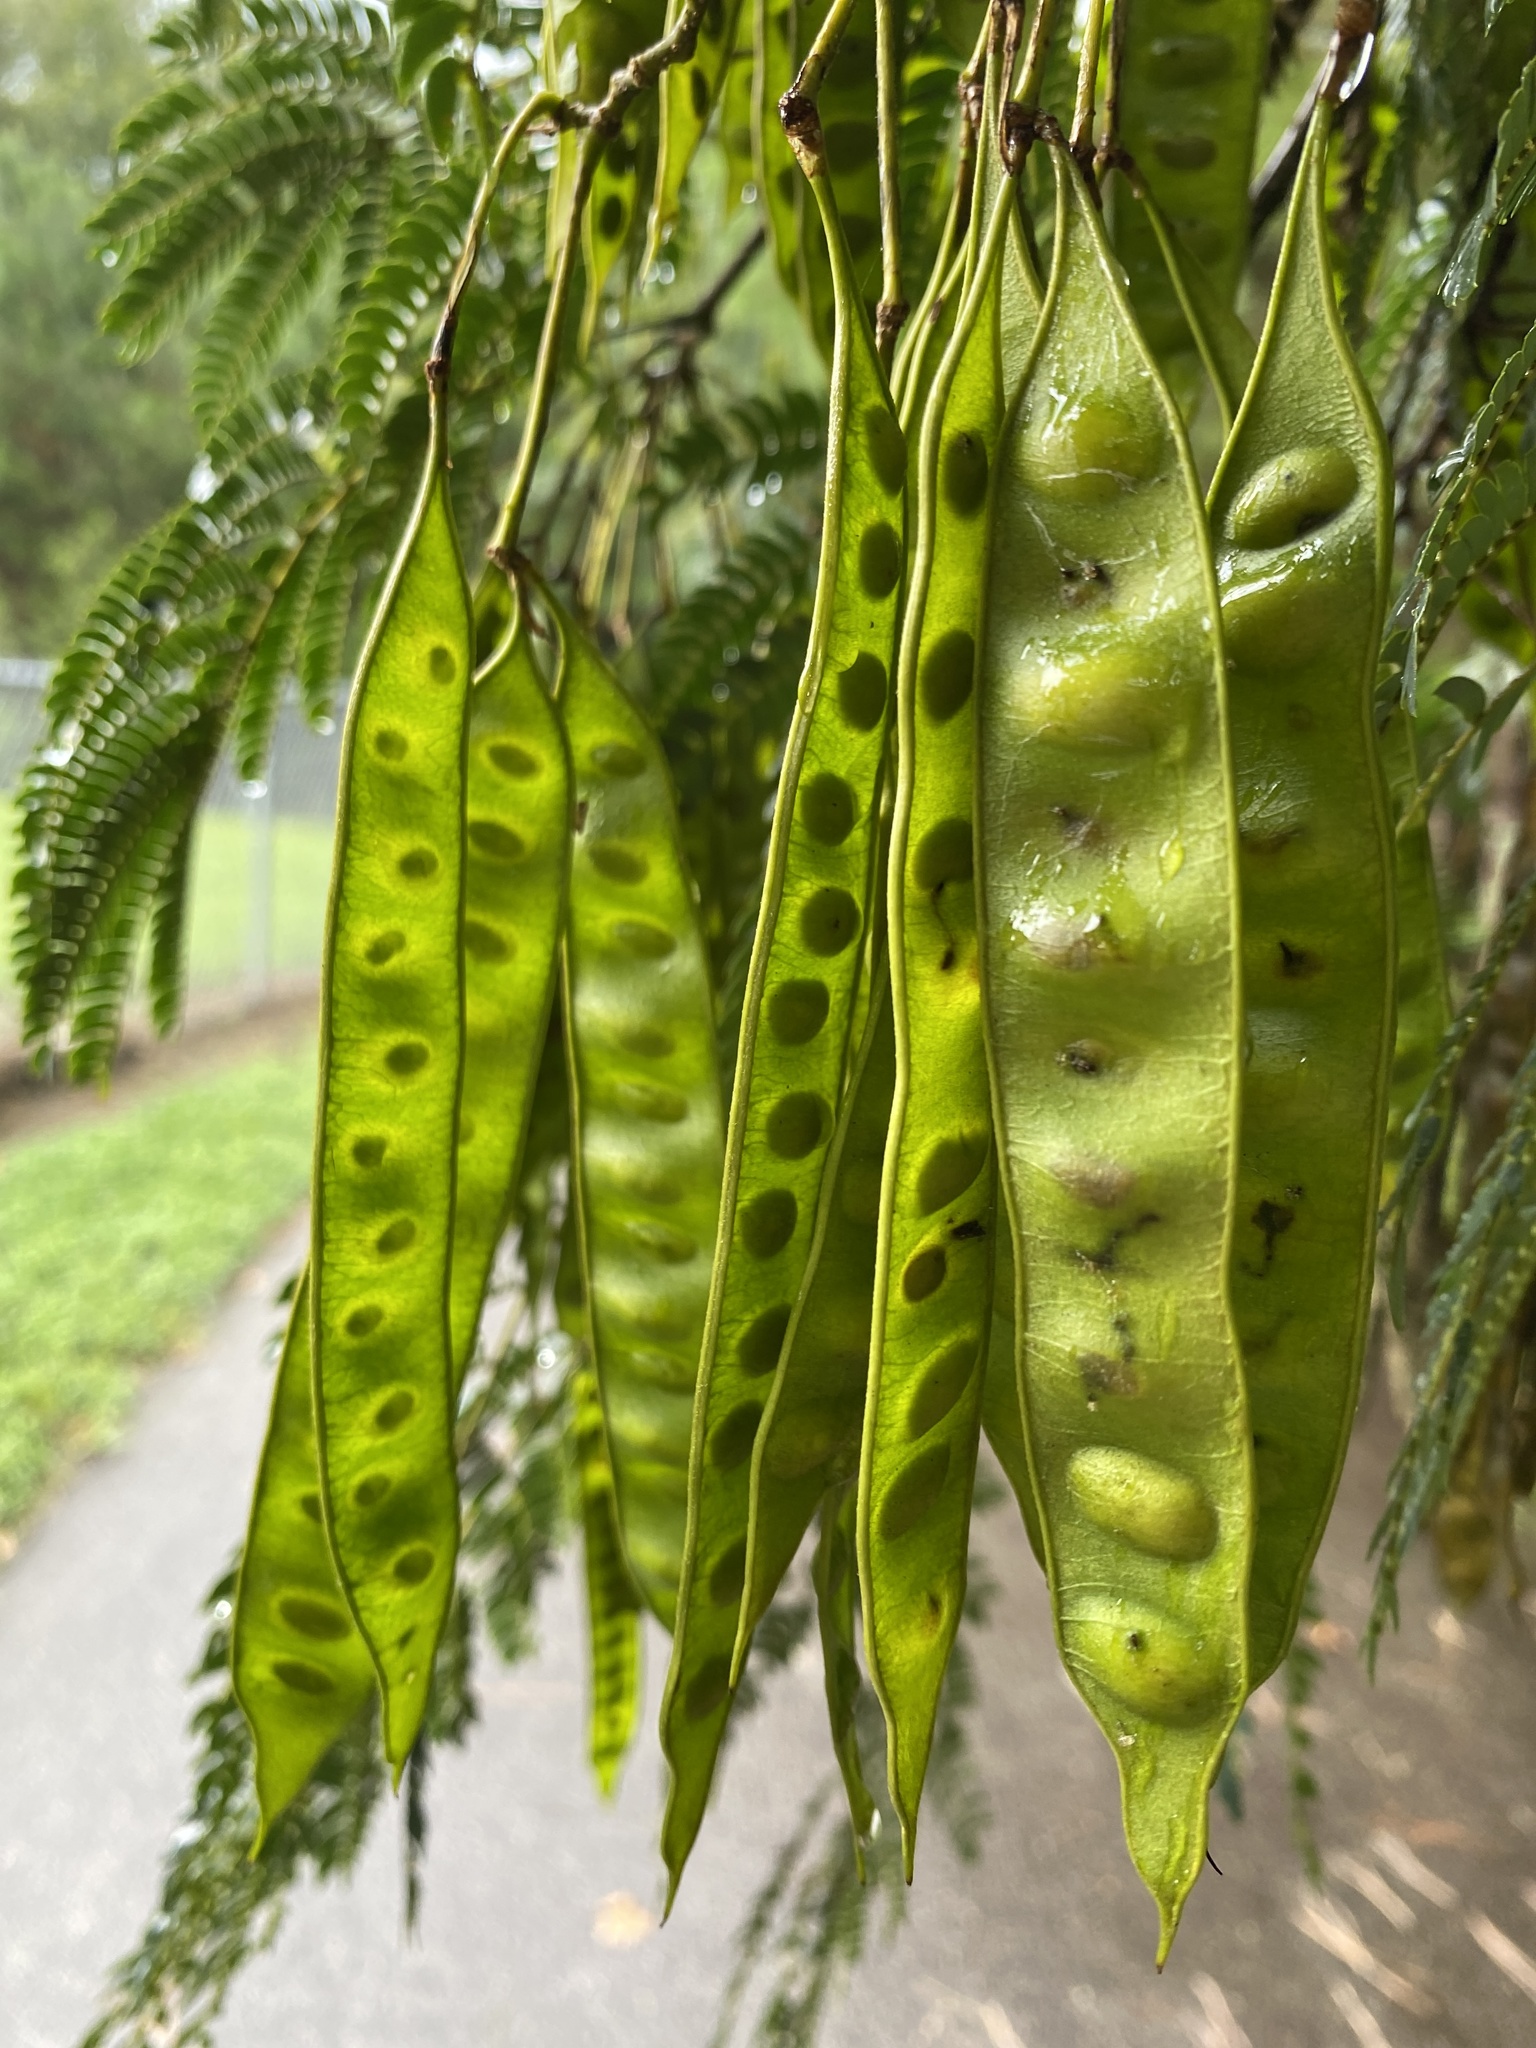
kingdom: Plantae
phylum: Tracheophyta
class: Magnoliopsida
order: Fabales
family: Fabaceae
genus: Albizia
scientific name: Albizia julibrissin
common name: Silktree
